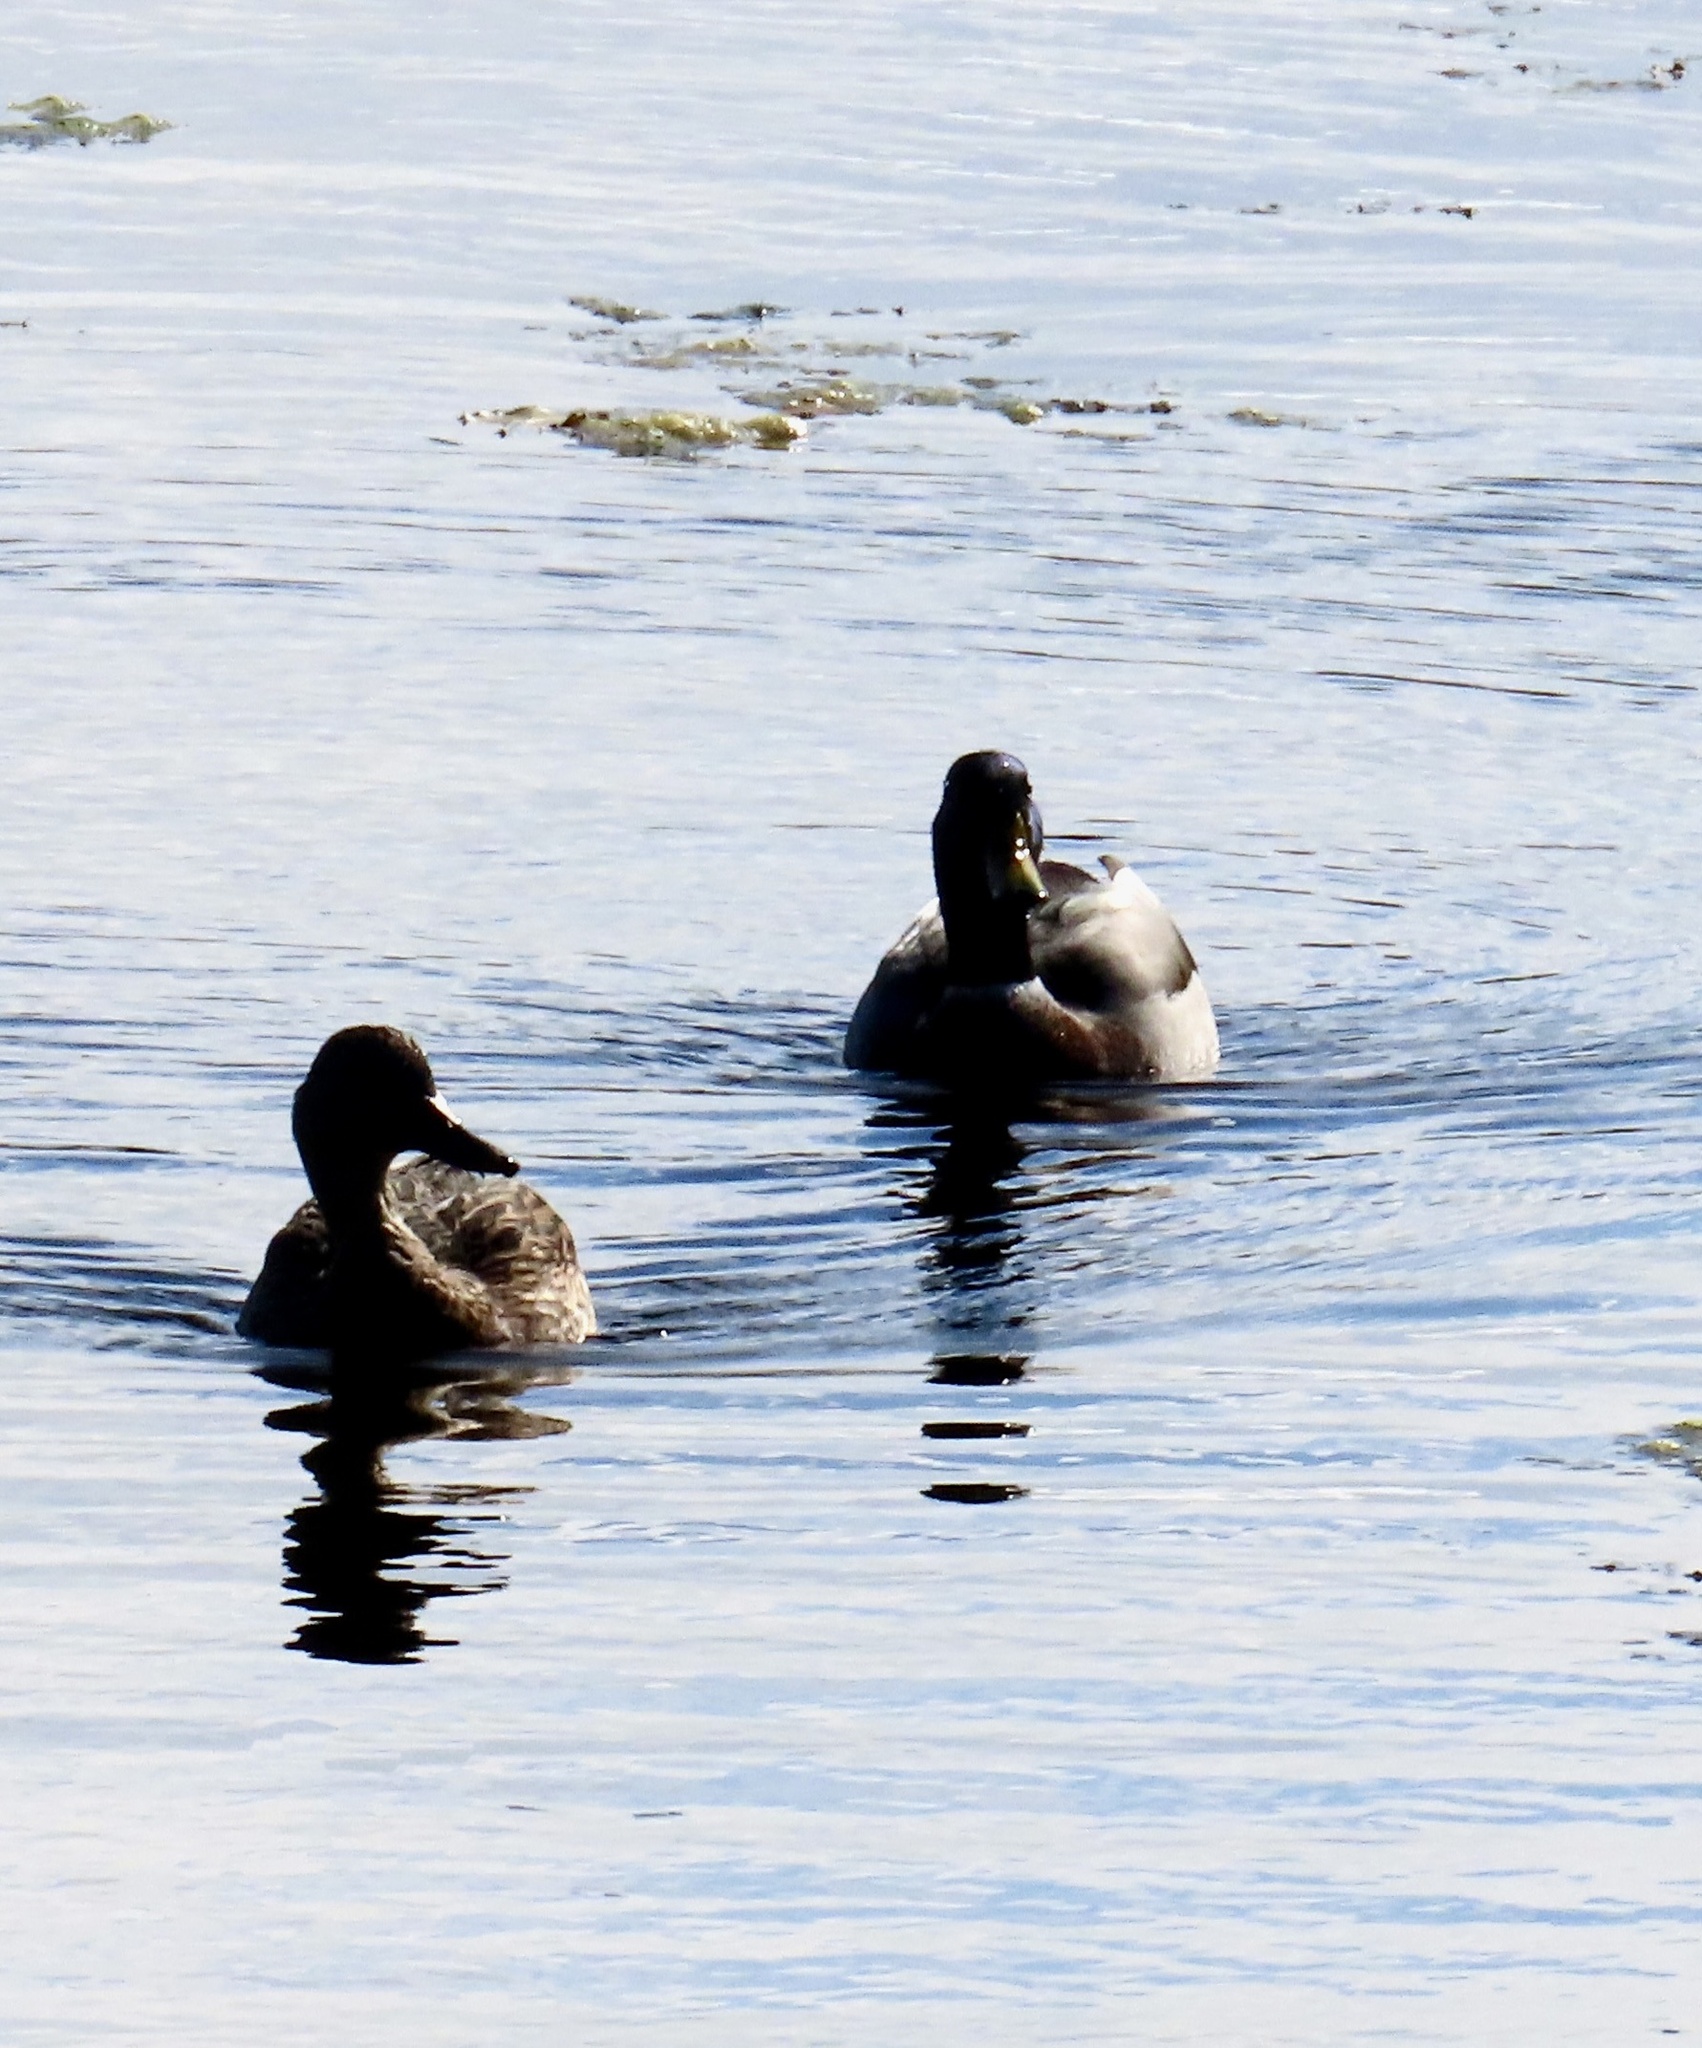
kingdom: Animalia
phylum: Chordata
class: Aves
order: Anseriformes
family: Anatidae
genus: Anas
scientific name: Anas platyrhynchos
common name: Mallard
